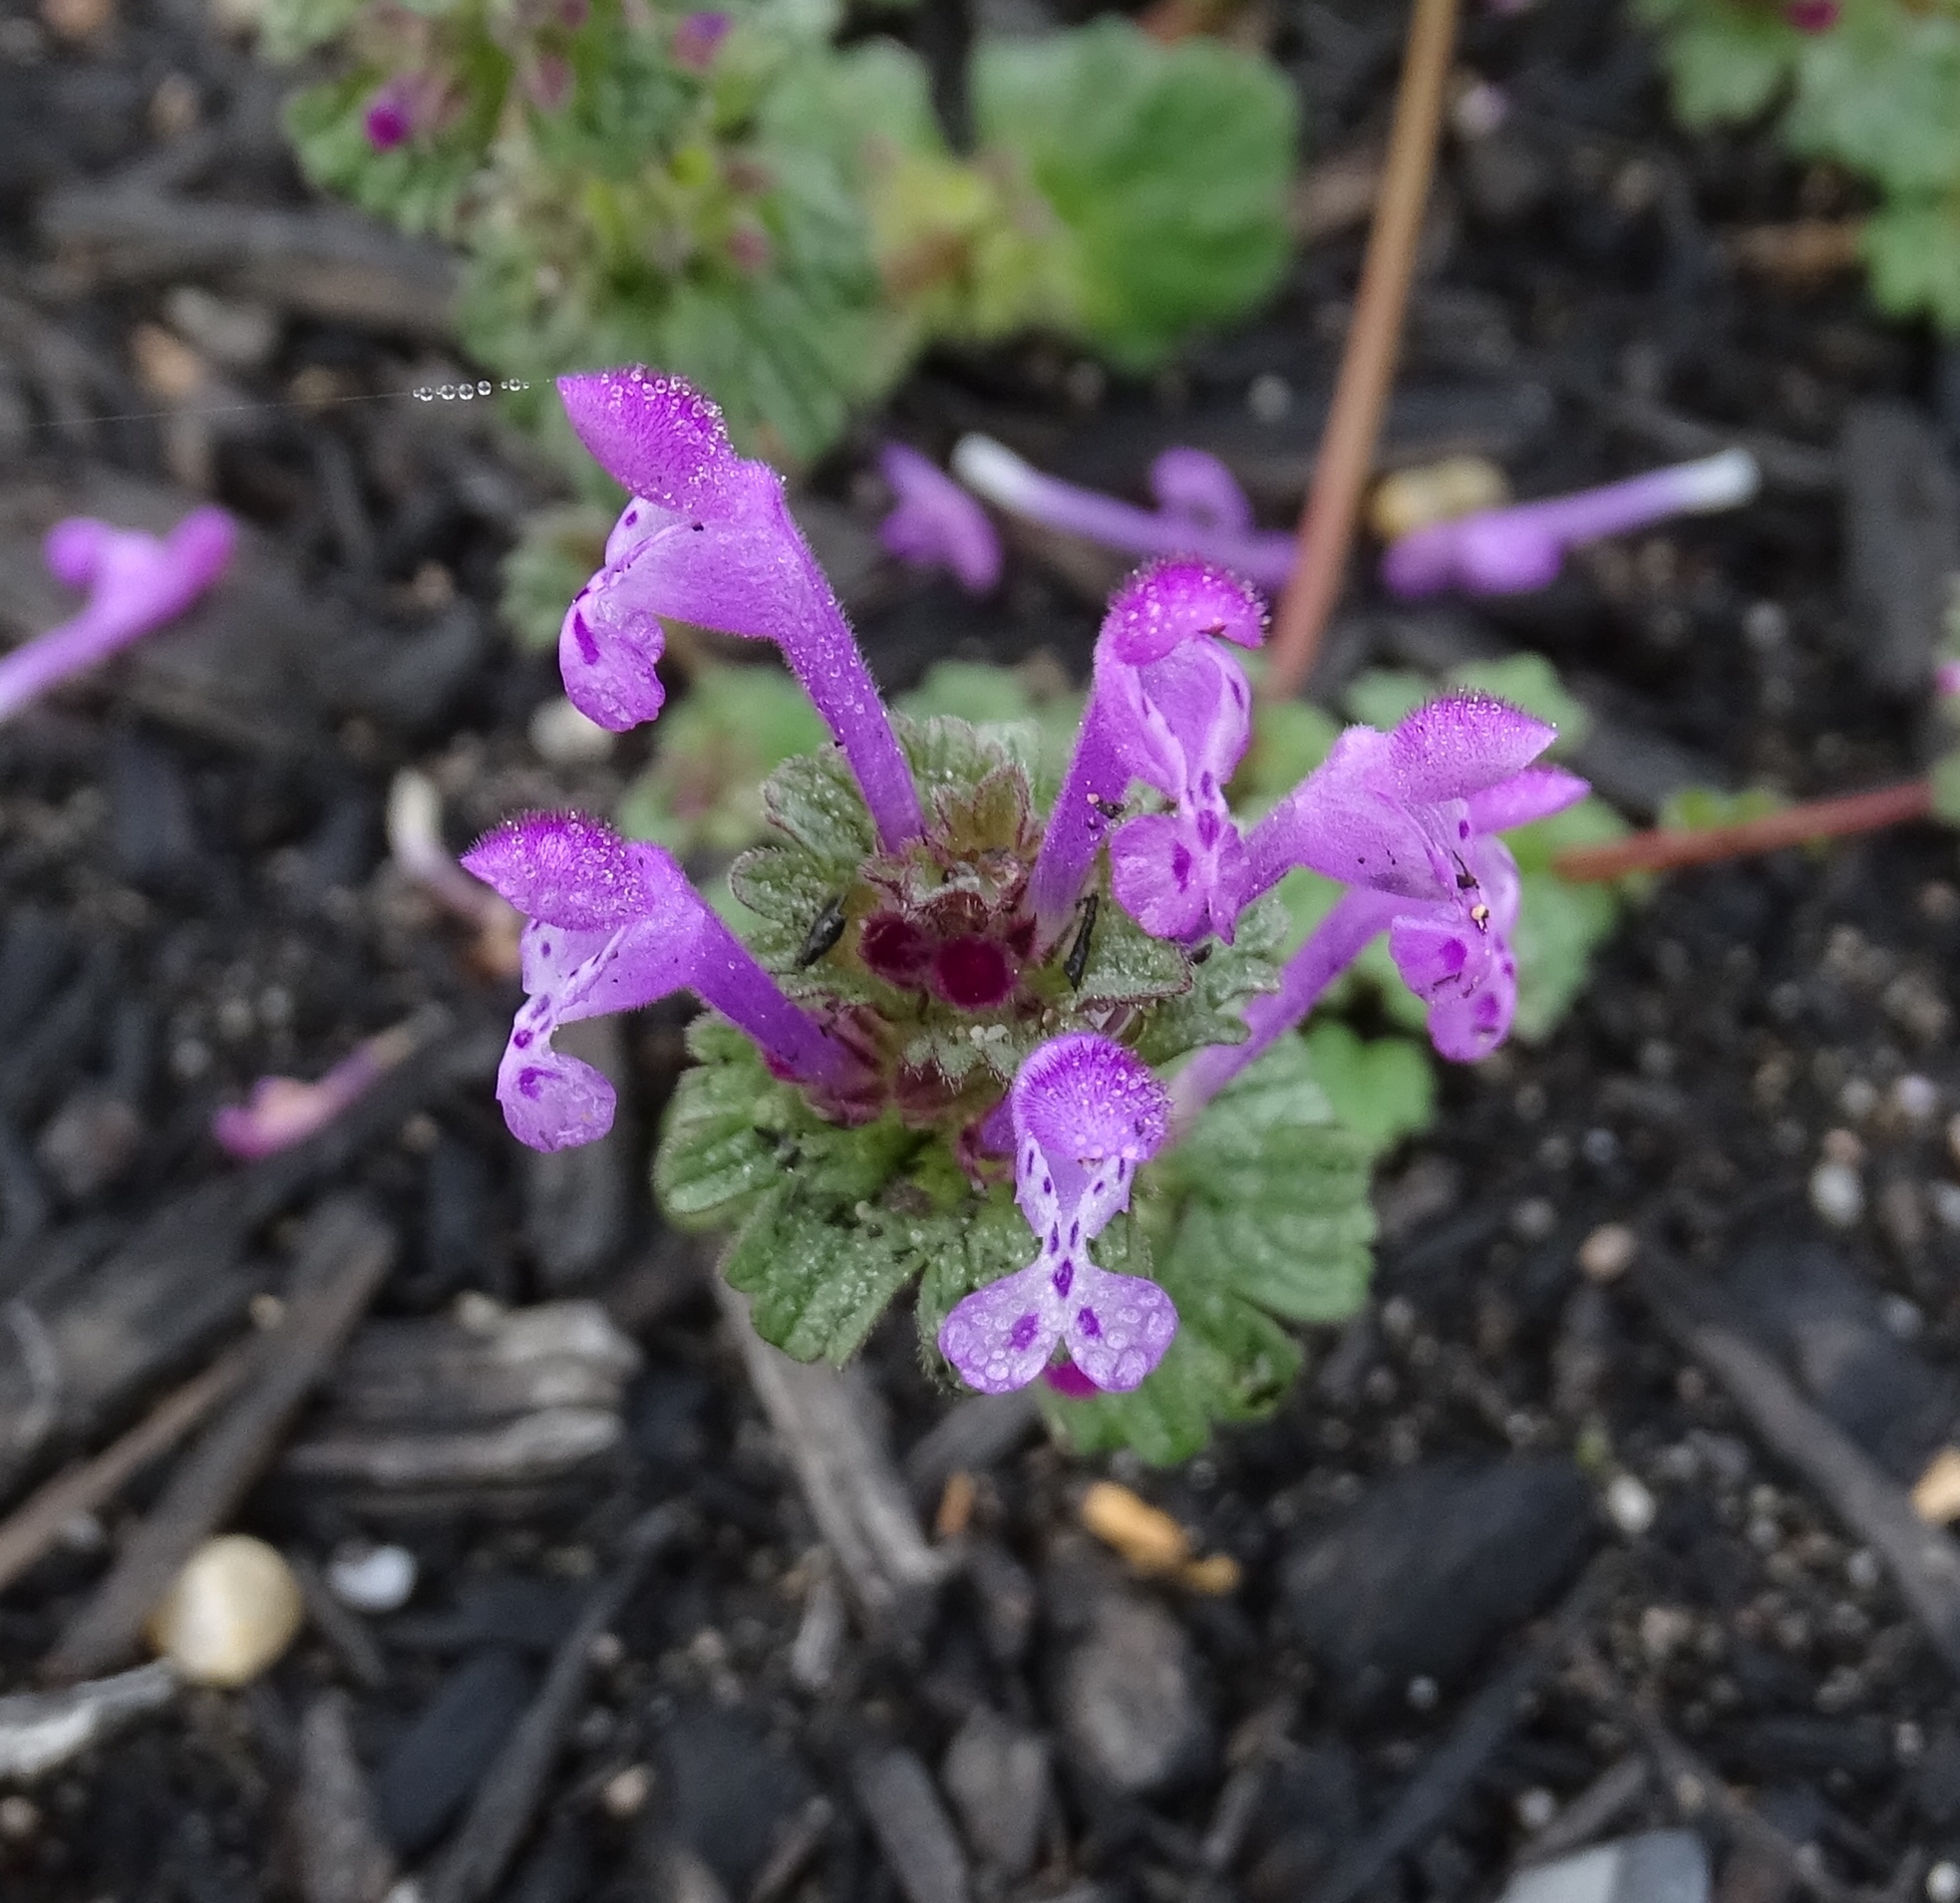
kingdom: Plantae
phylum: Tracheophyta
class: Magnoliopsida
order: Lamiales
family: Lamiaceae
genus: Lamium
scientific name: Lamium amplexicaule
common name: Henbit dead-nettle
